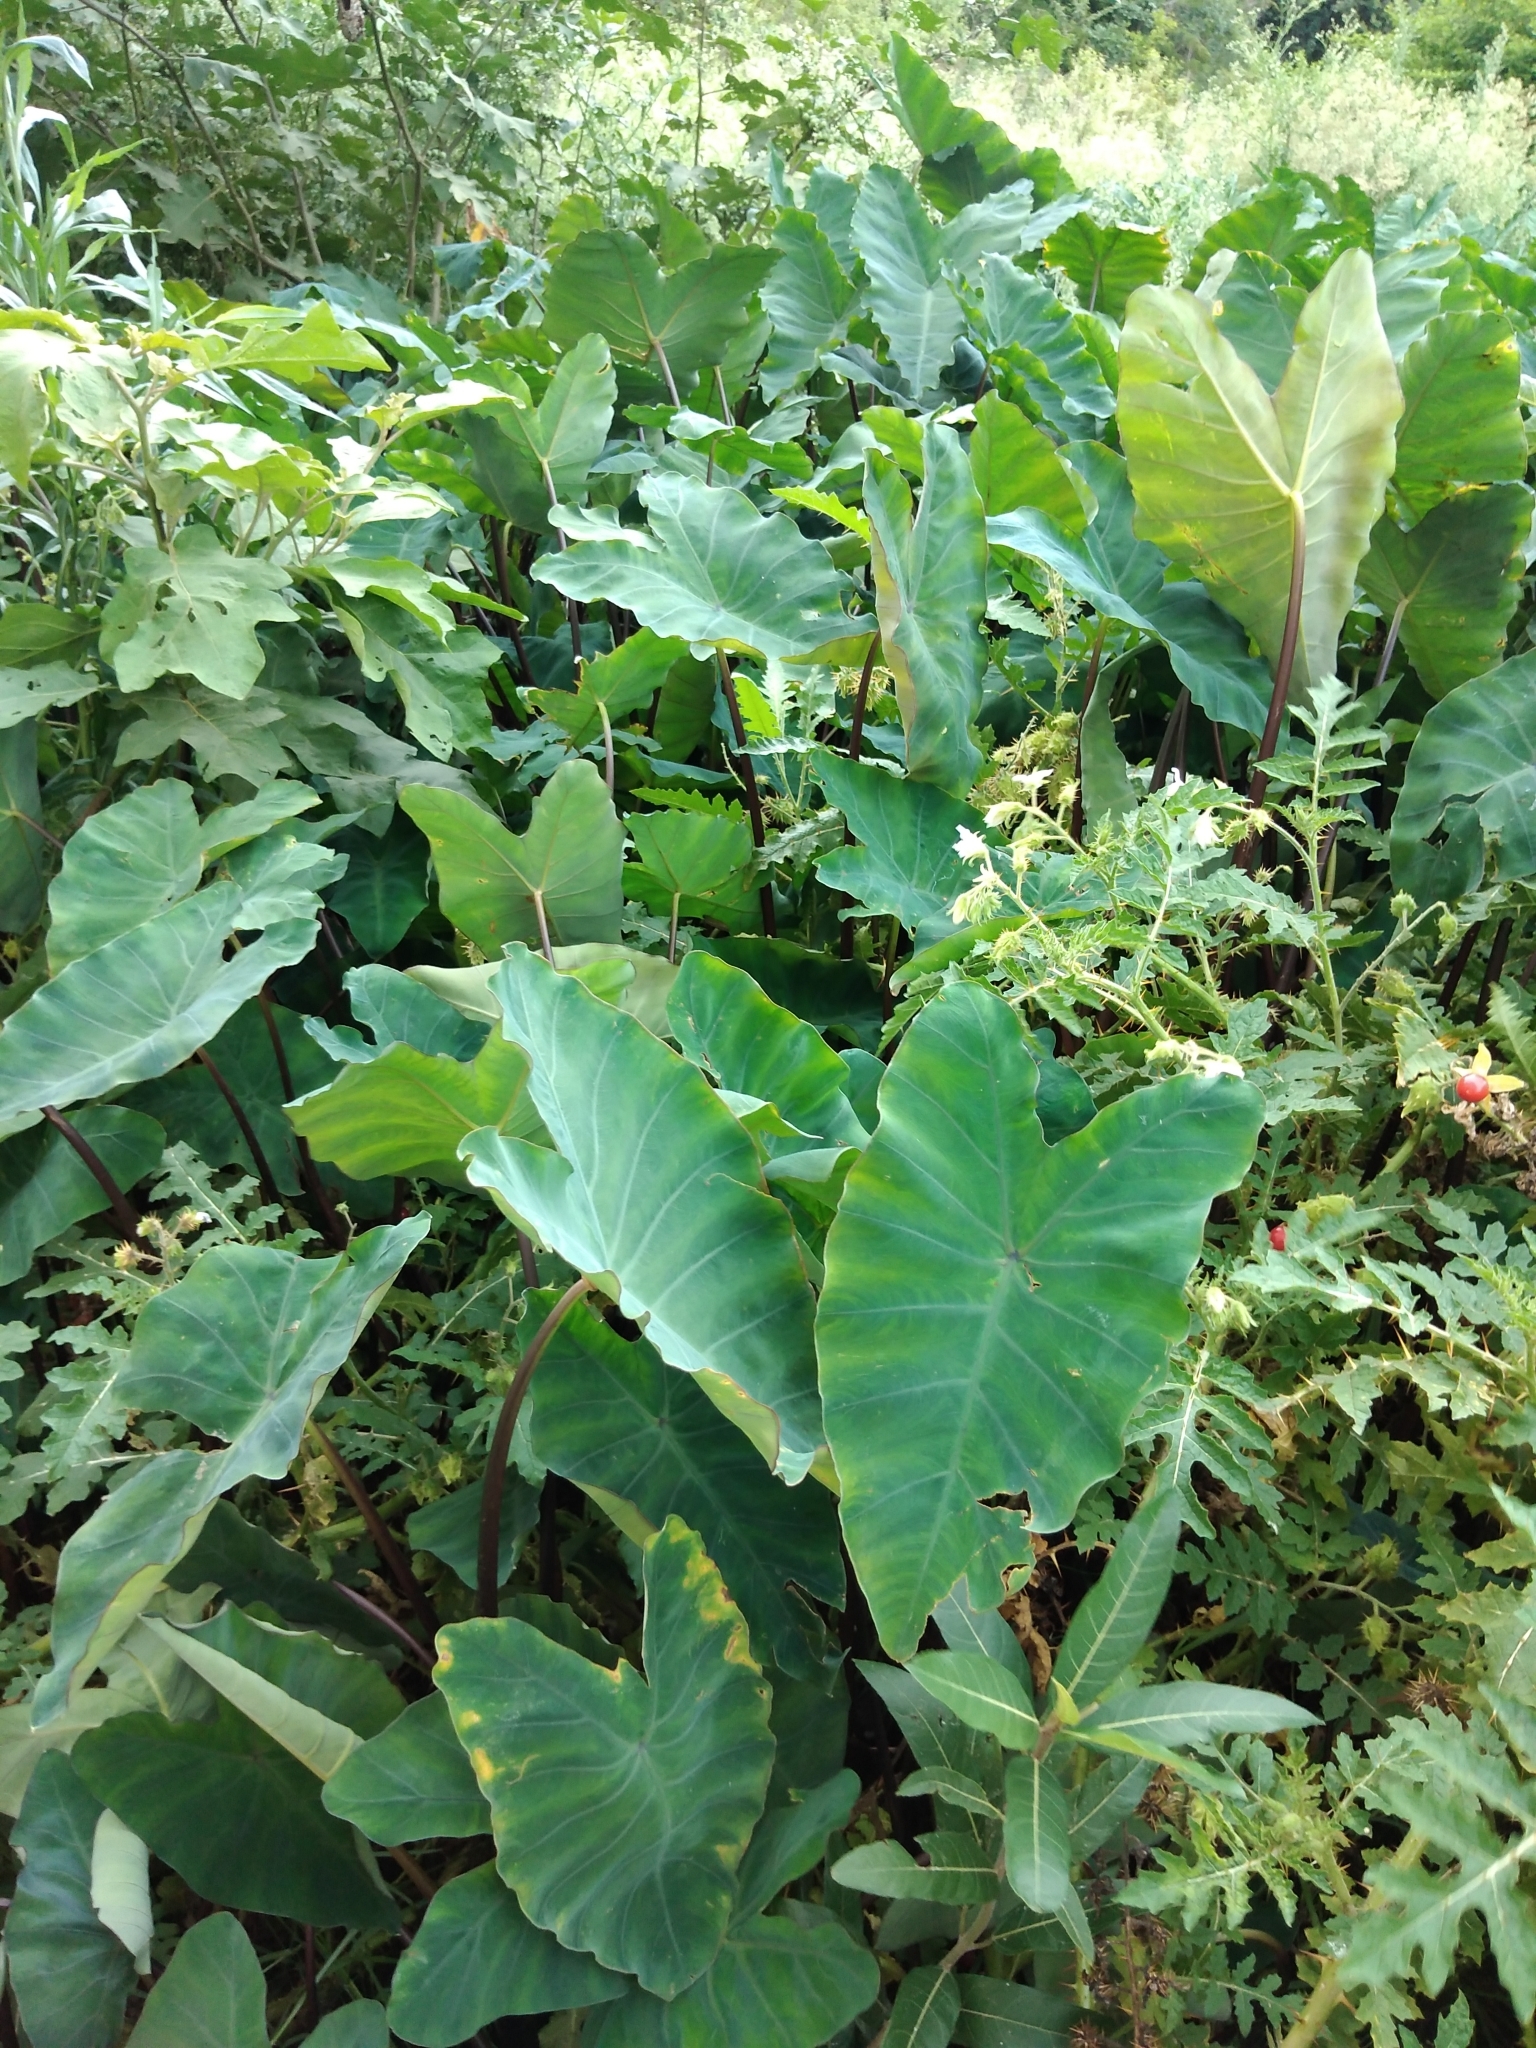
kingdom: Plantae
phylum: Tracheophyta
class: Liliopsida
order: Alismatales
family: Araceae
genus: Colocasia
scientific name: Colocasia esculenta
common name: Taro
